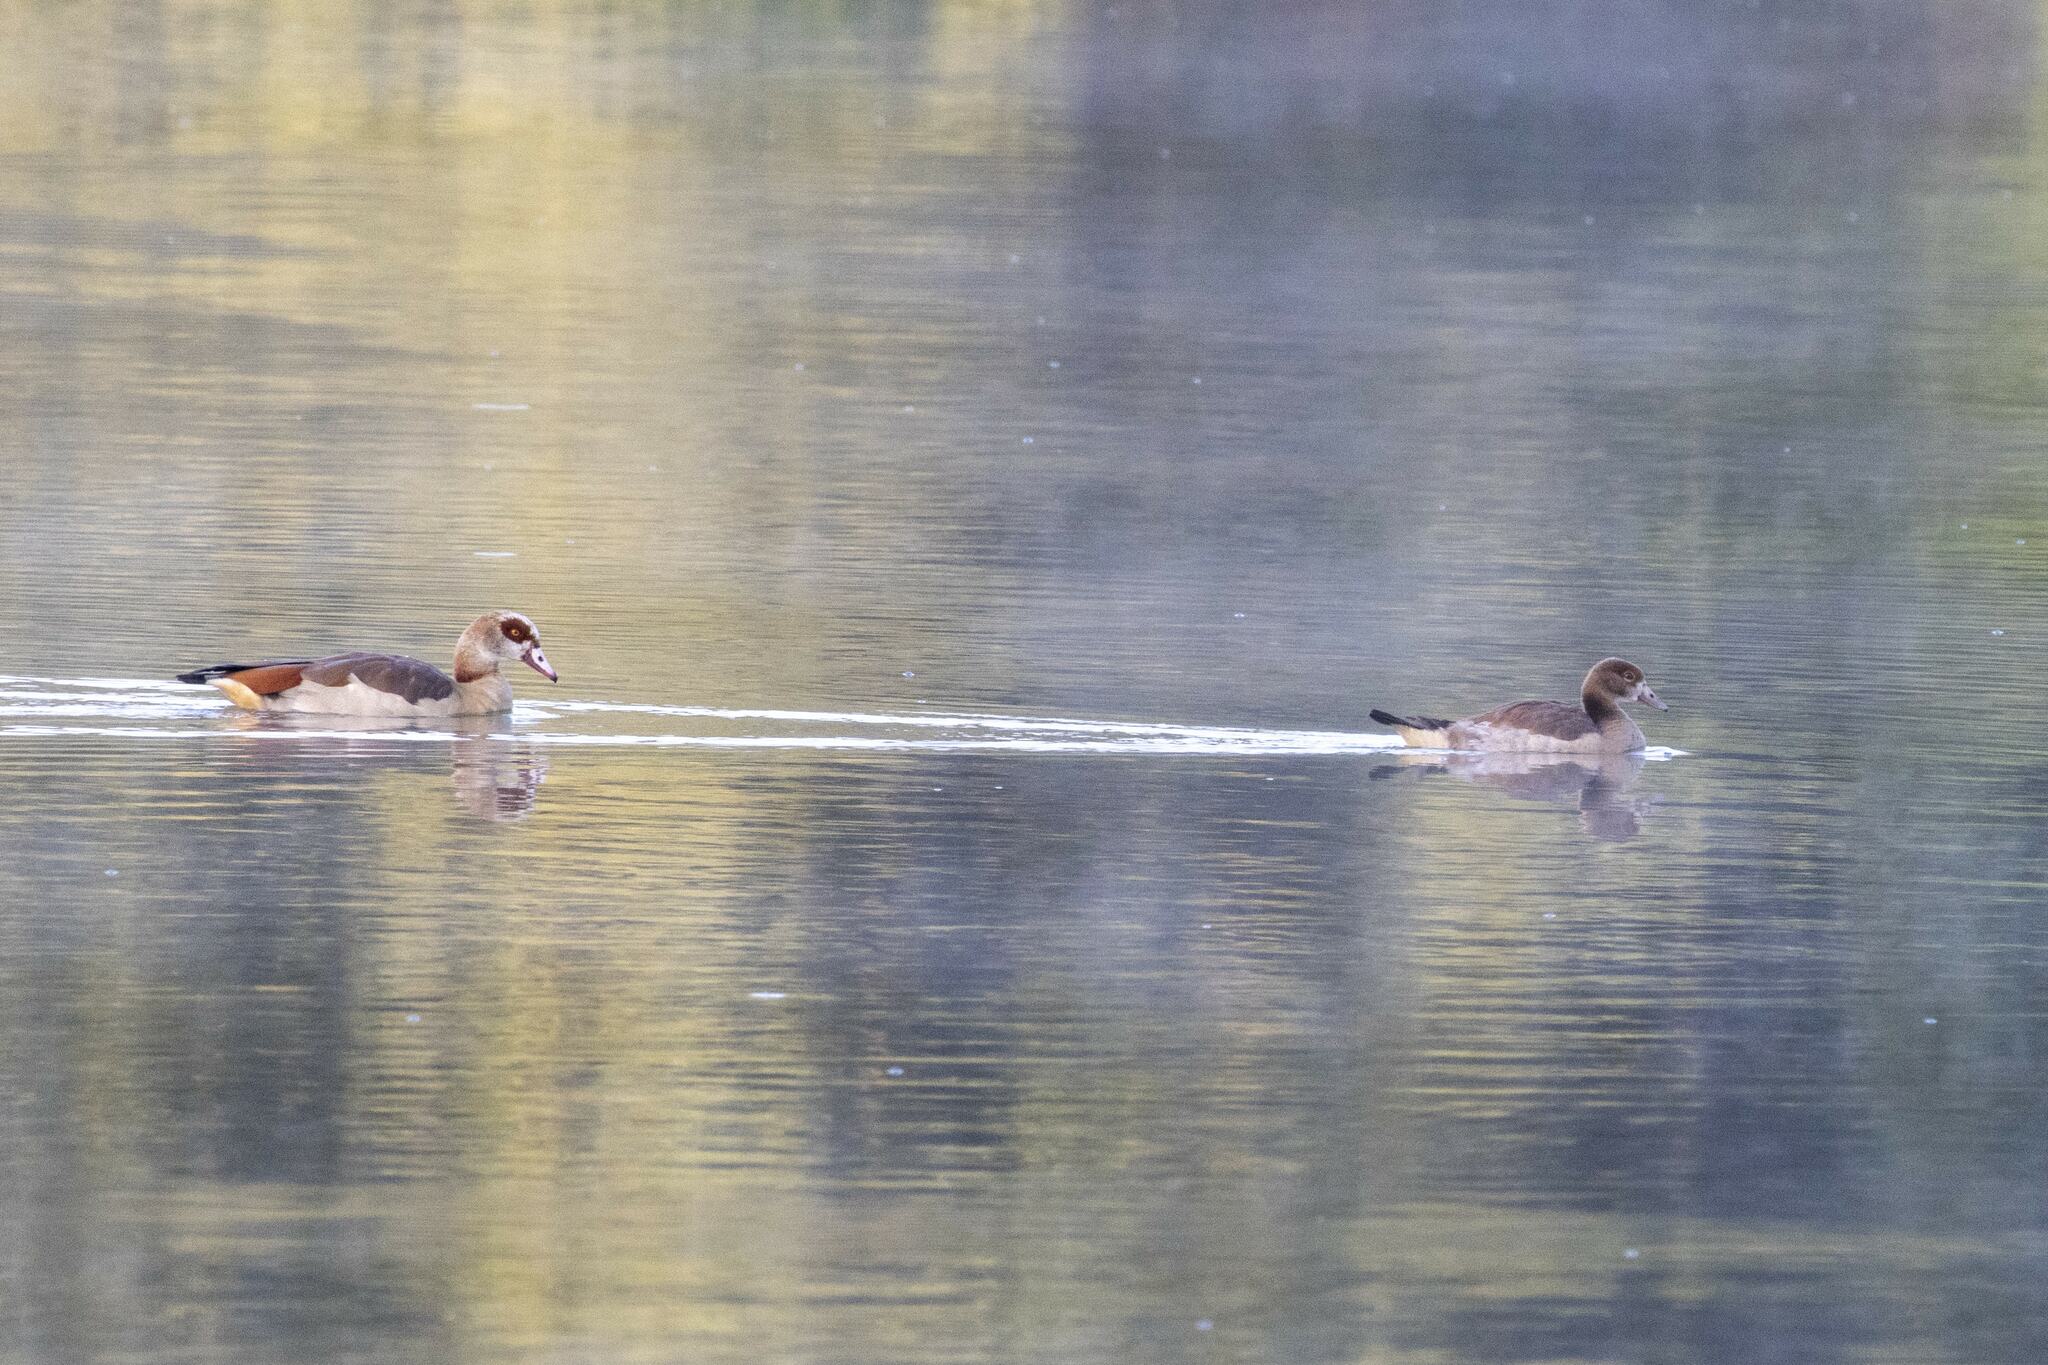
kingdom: Animalia
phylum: Chordata
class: Aves
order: Anseriformes
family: Anatidae
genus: Alopochen
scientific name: Alopochen aegyptiaca
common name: Egyptian goose
